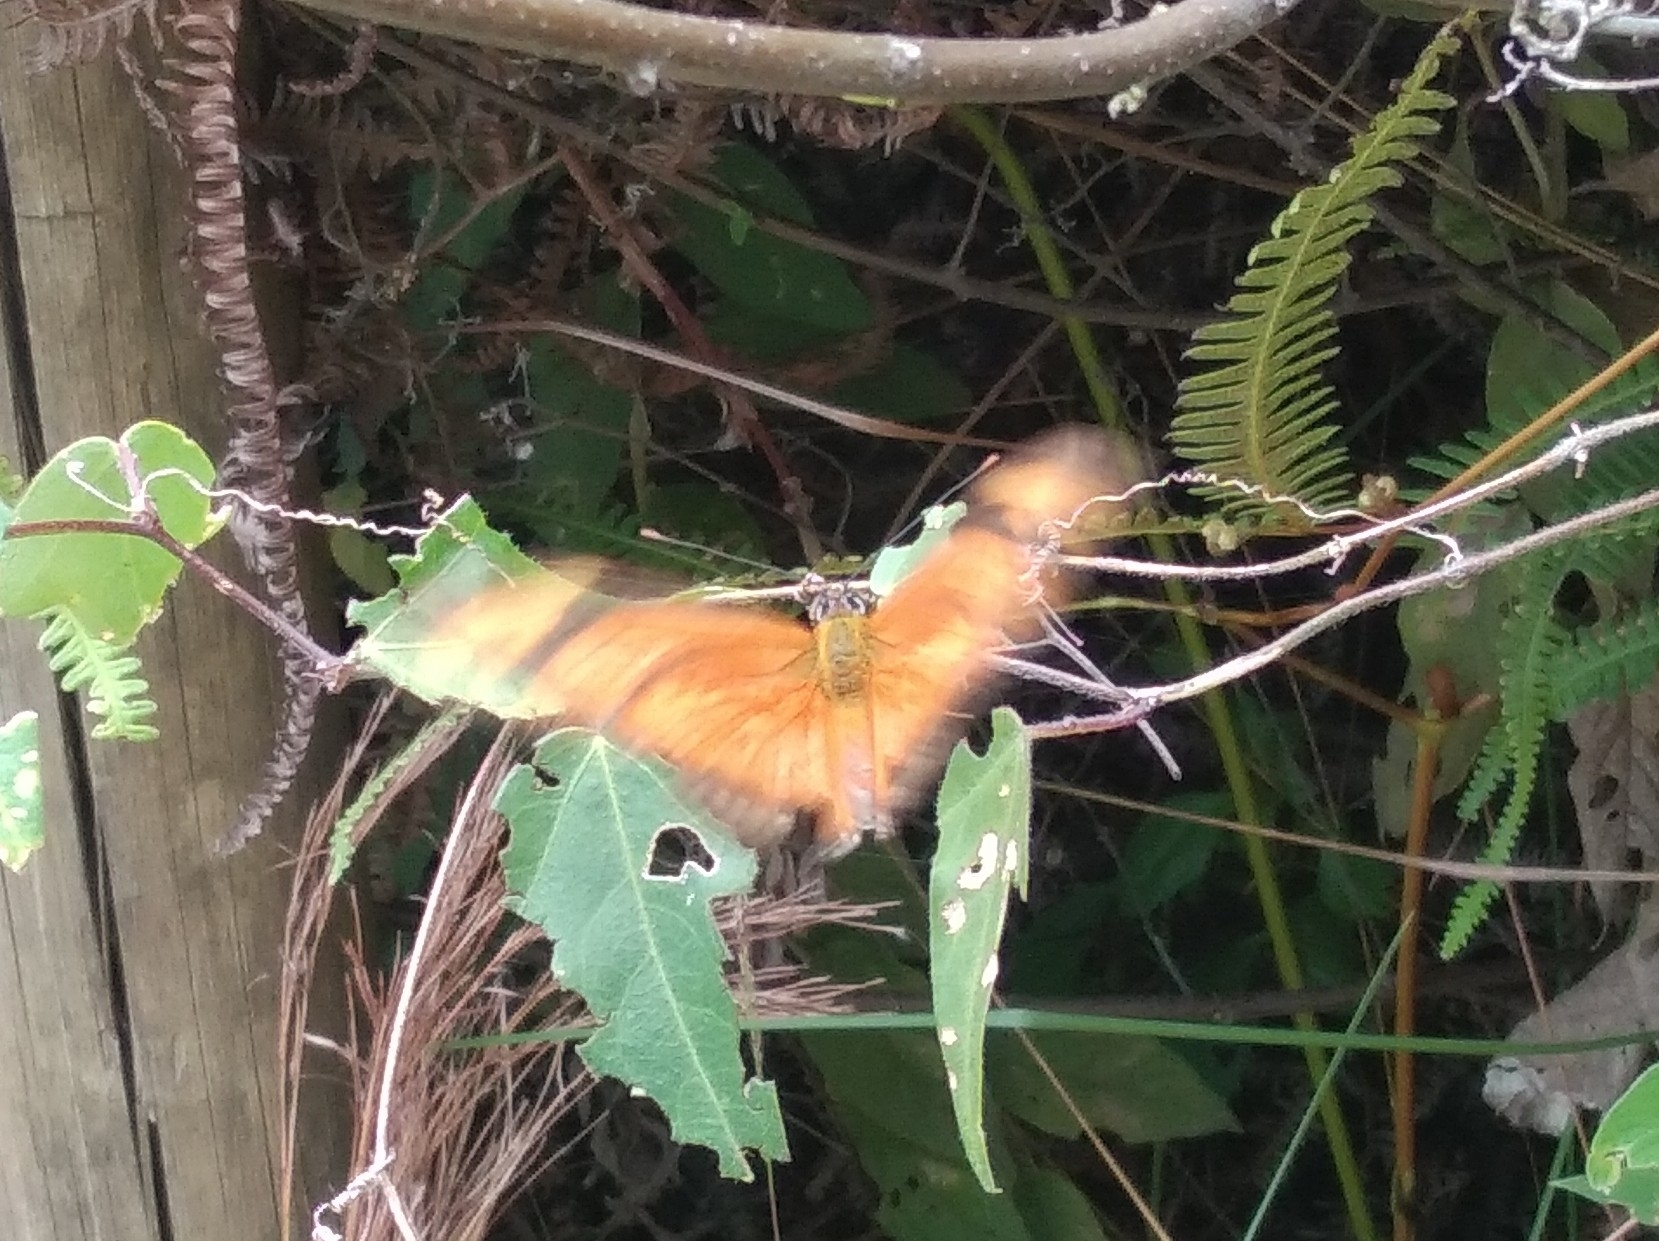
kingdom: Animalia
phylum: Arthropoda
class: Insecta
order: Lepidoptera
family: Nymphalidae
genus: Dryas
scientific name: Dryas iulia
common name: Flambeau
